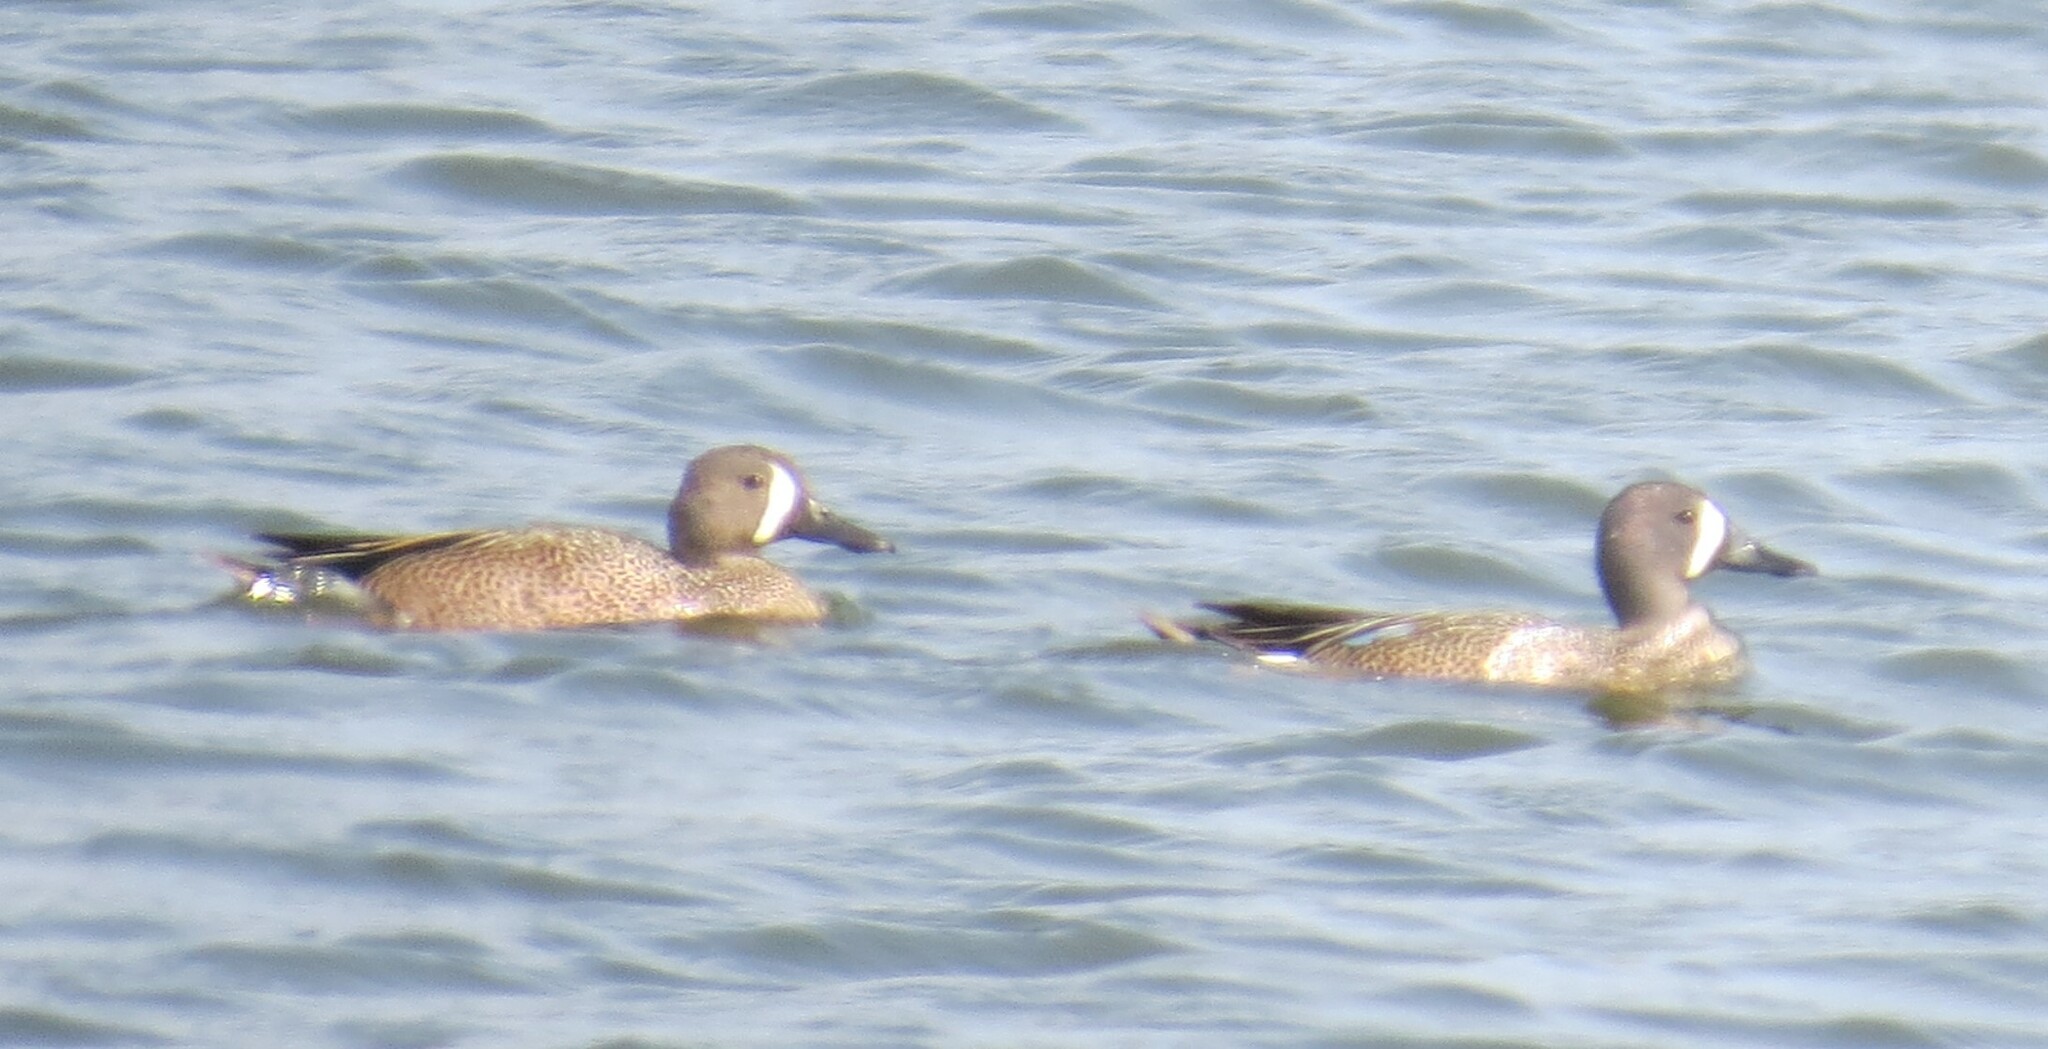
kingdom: Animalia
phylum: Chordata
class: Aves
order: Anseriformes
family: Anatidae
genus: Spatula
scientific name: Spatula discors
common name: Blue-winged teal
